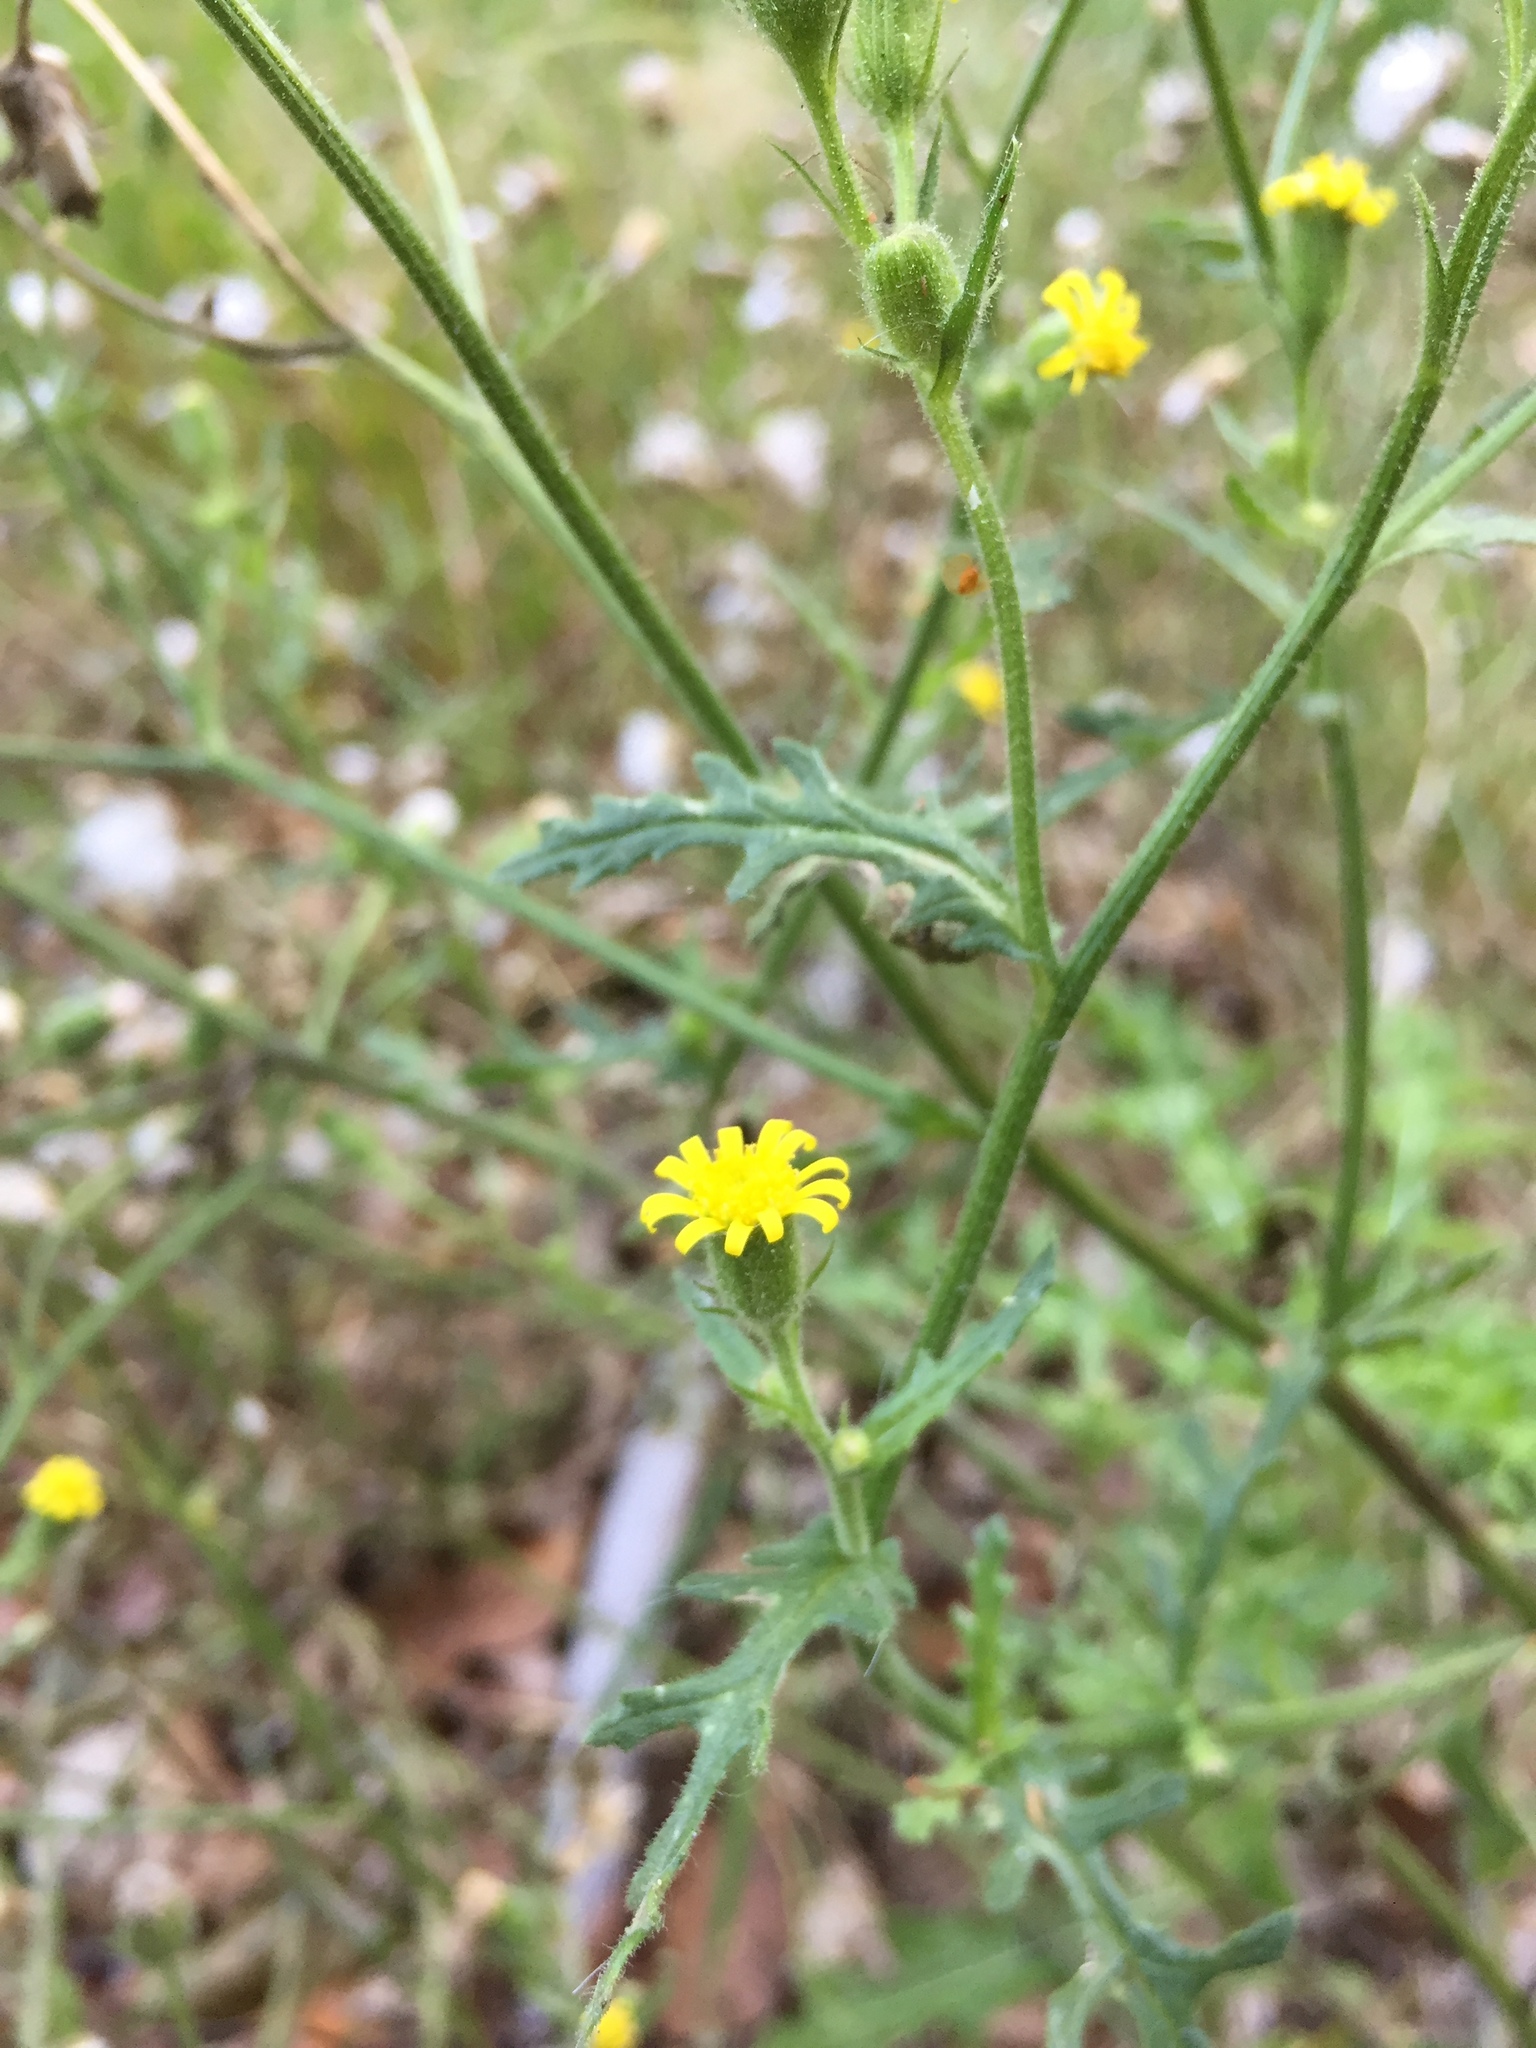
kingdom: Plantae
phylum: Tracheophyta
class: Magnoliopsida
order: Asterales
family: Asteraceae
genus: Senecio
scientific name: Senecio viscosus
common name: Sticky groundsel
